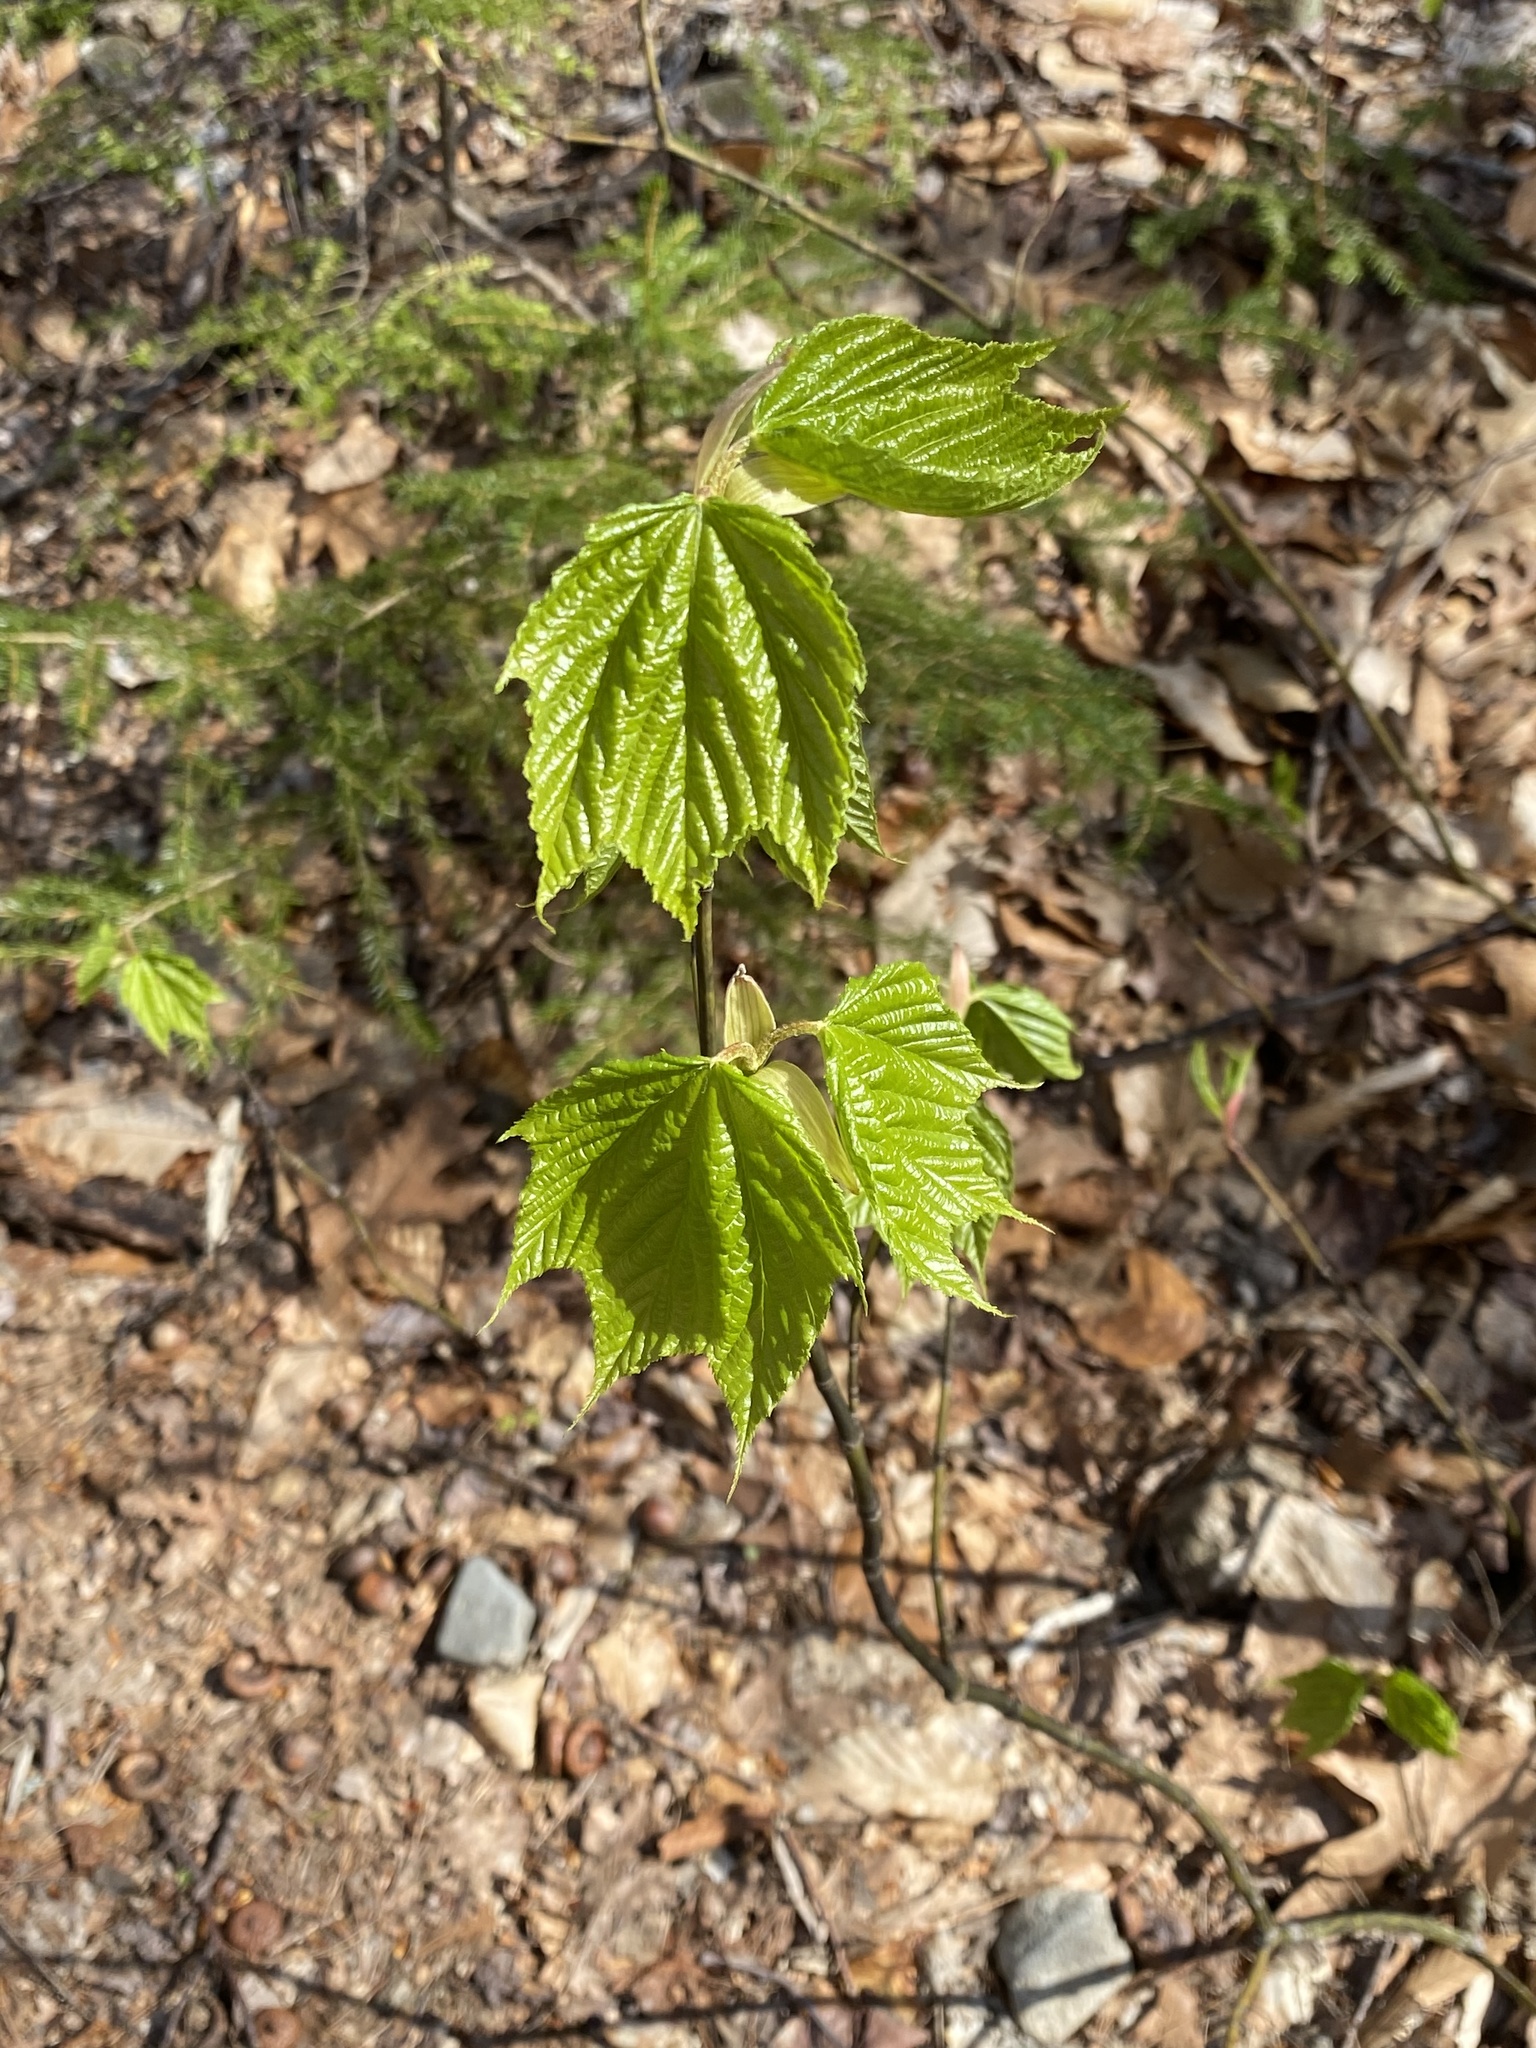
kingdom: Plantae
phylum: Tracheophyta
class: Magnoliopsida
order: Sapindales
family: Sapindaceae
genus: Acer
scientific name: Acer pensylvanicum
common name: Moosewood
